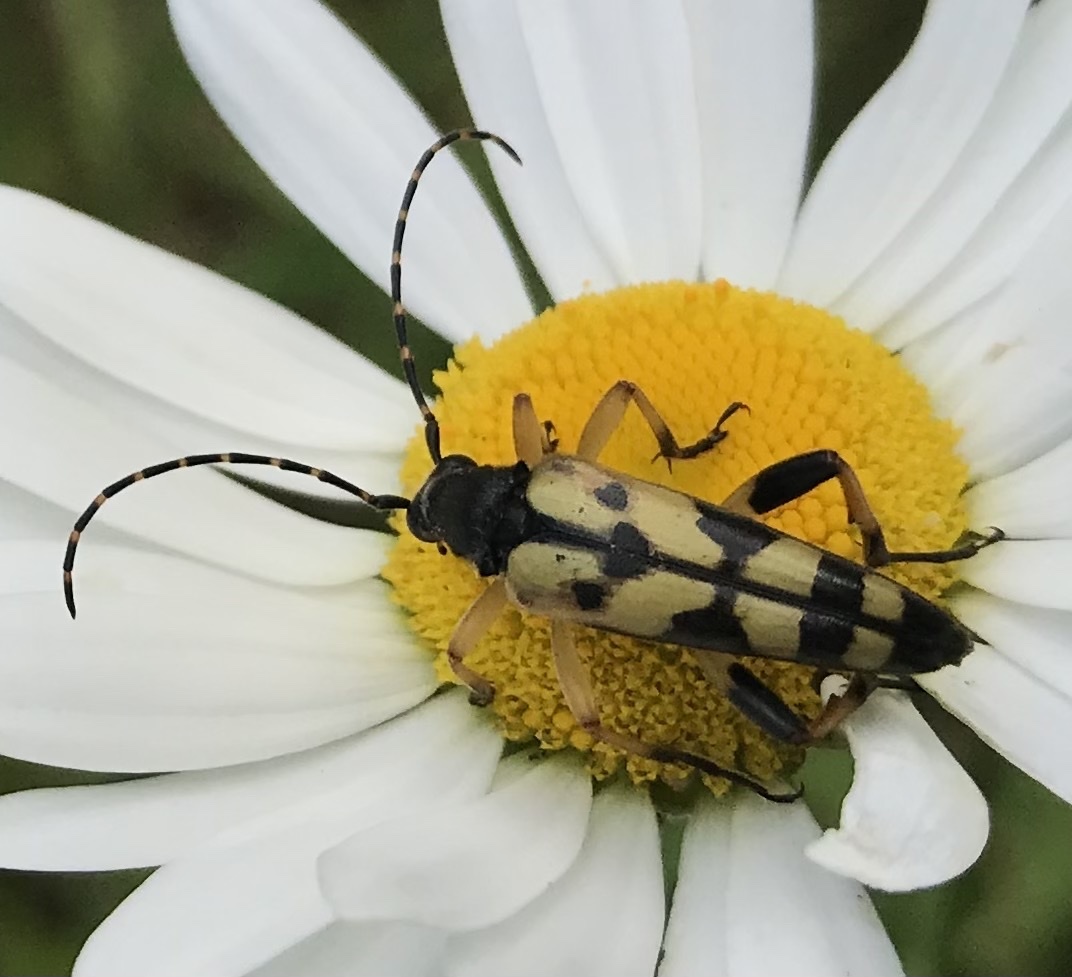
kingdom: Animalia
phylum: Arthropoda
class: Insecta
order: Coleoptera
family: Cerambycidae
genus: Rutpela
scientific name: Rutpela maculata
